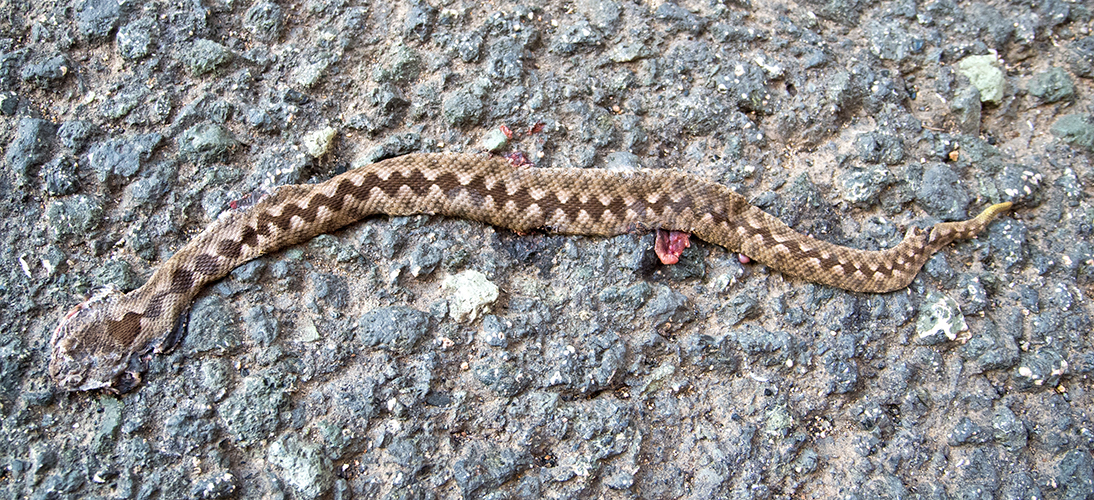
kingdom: Animalia
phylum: Chordata
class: Squamata
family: Viperidae
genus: Vipera
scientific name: Vipera ammodytes
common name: Sand viper
